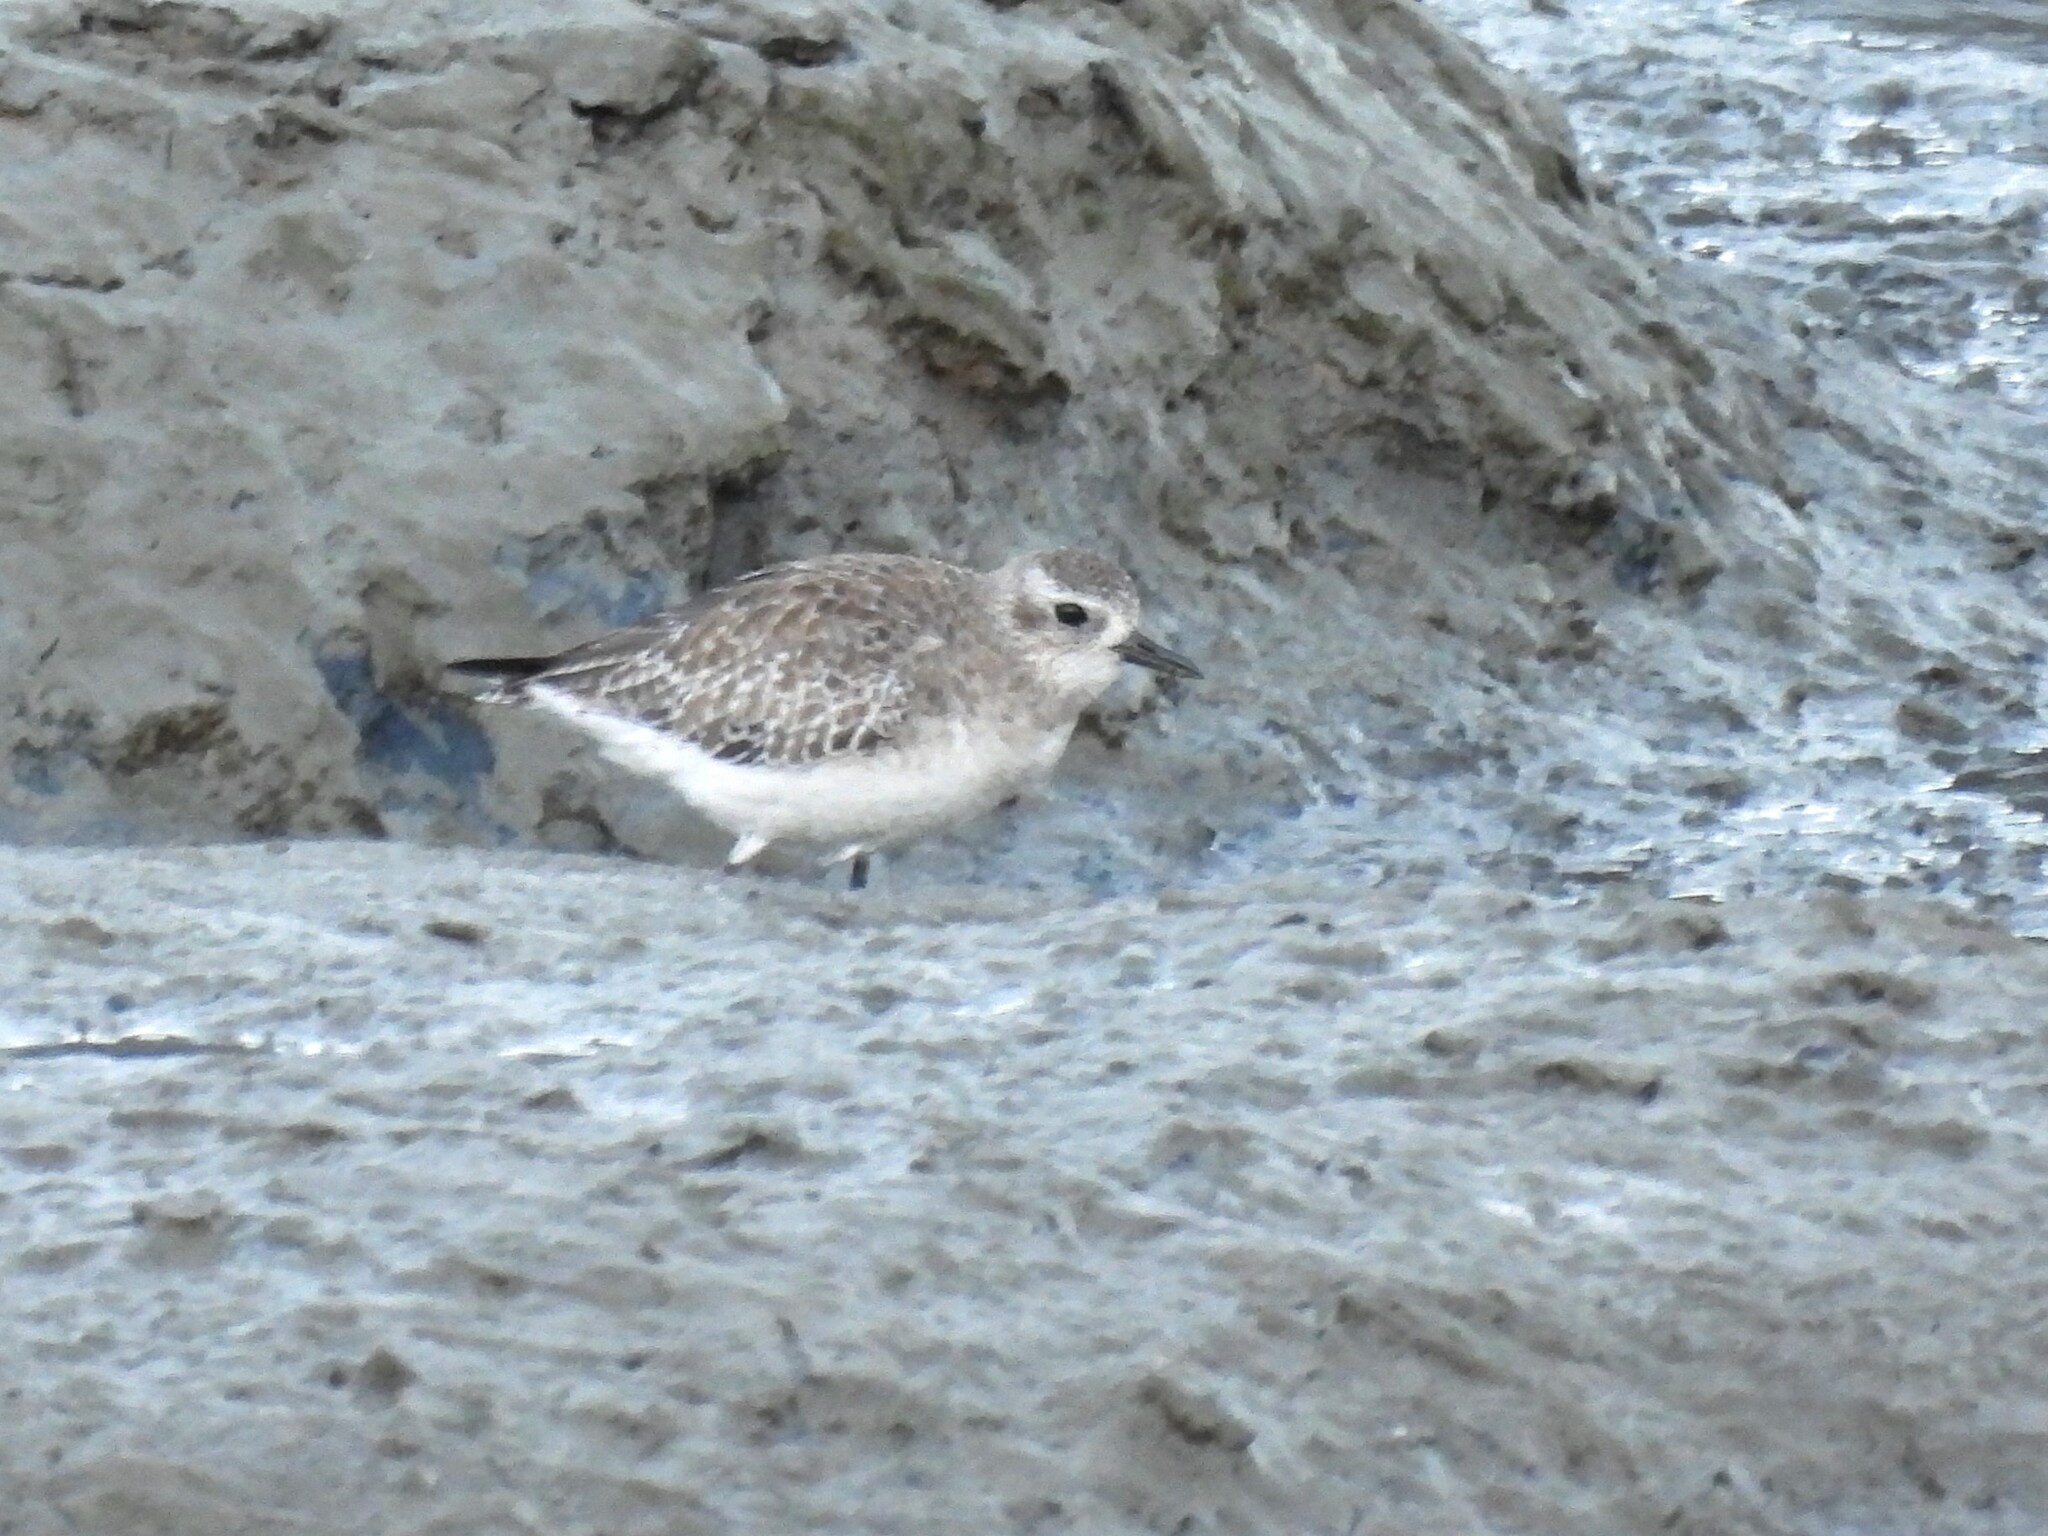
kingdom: Animalia
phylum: Chordata
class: Aves
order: Charadriiformes
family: Charadriidae
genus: Pluvialis
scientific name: Pluvialis squatarola
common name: Grey plover
